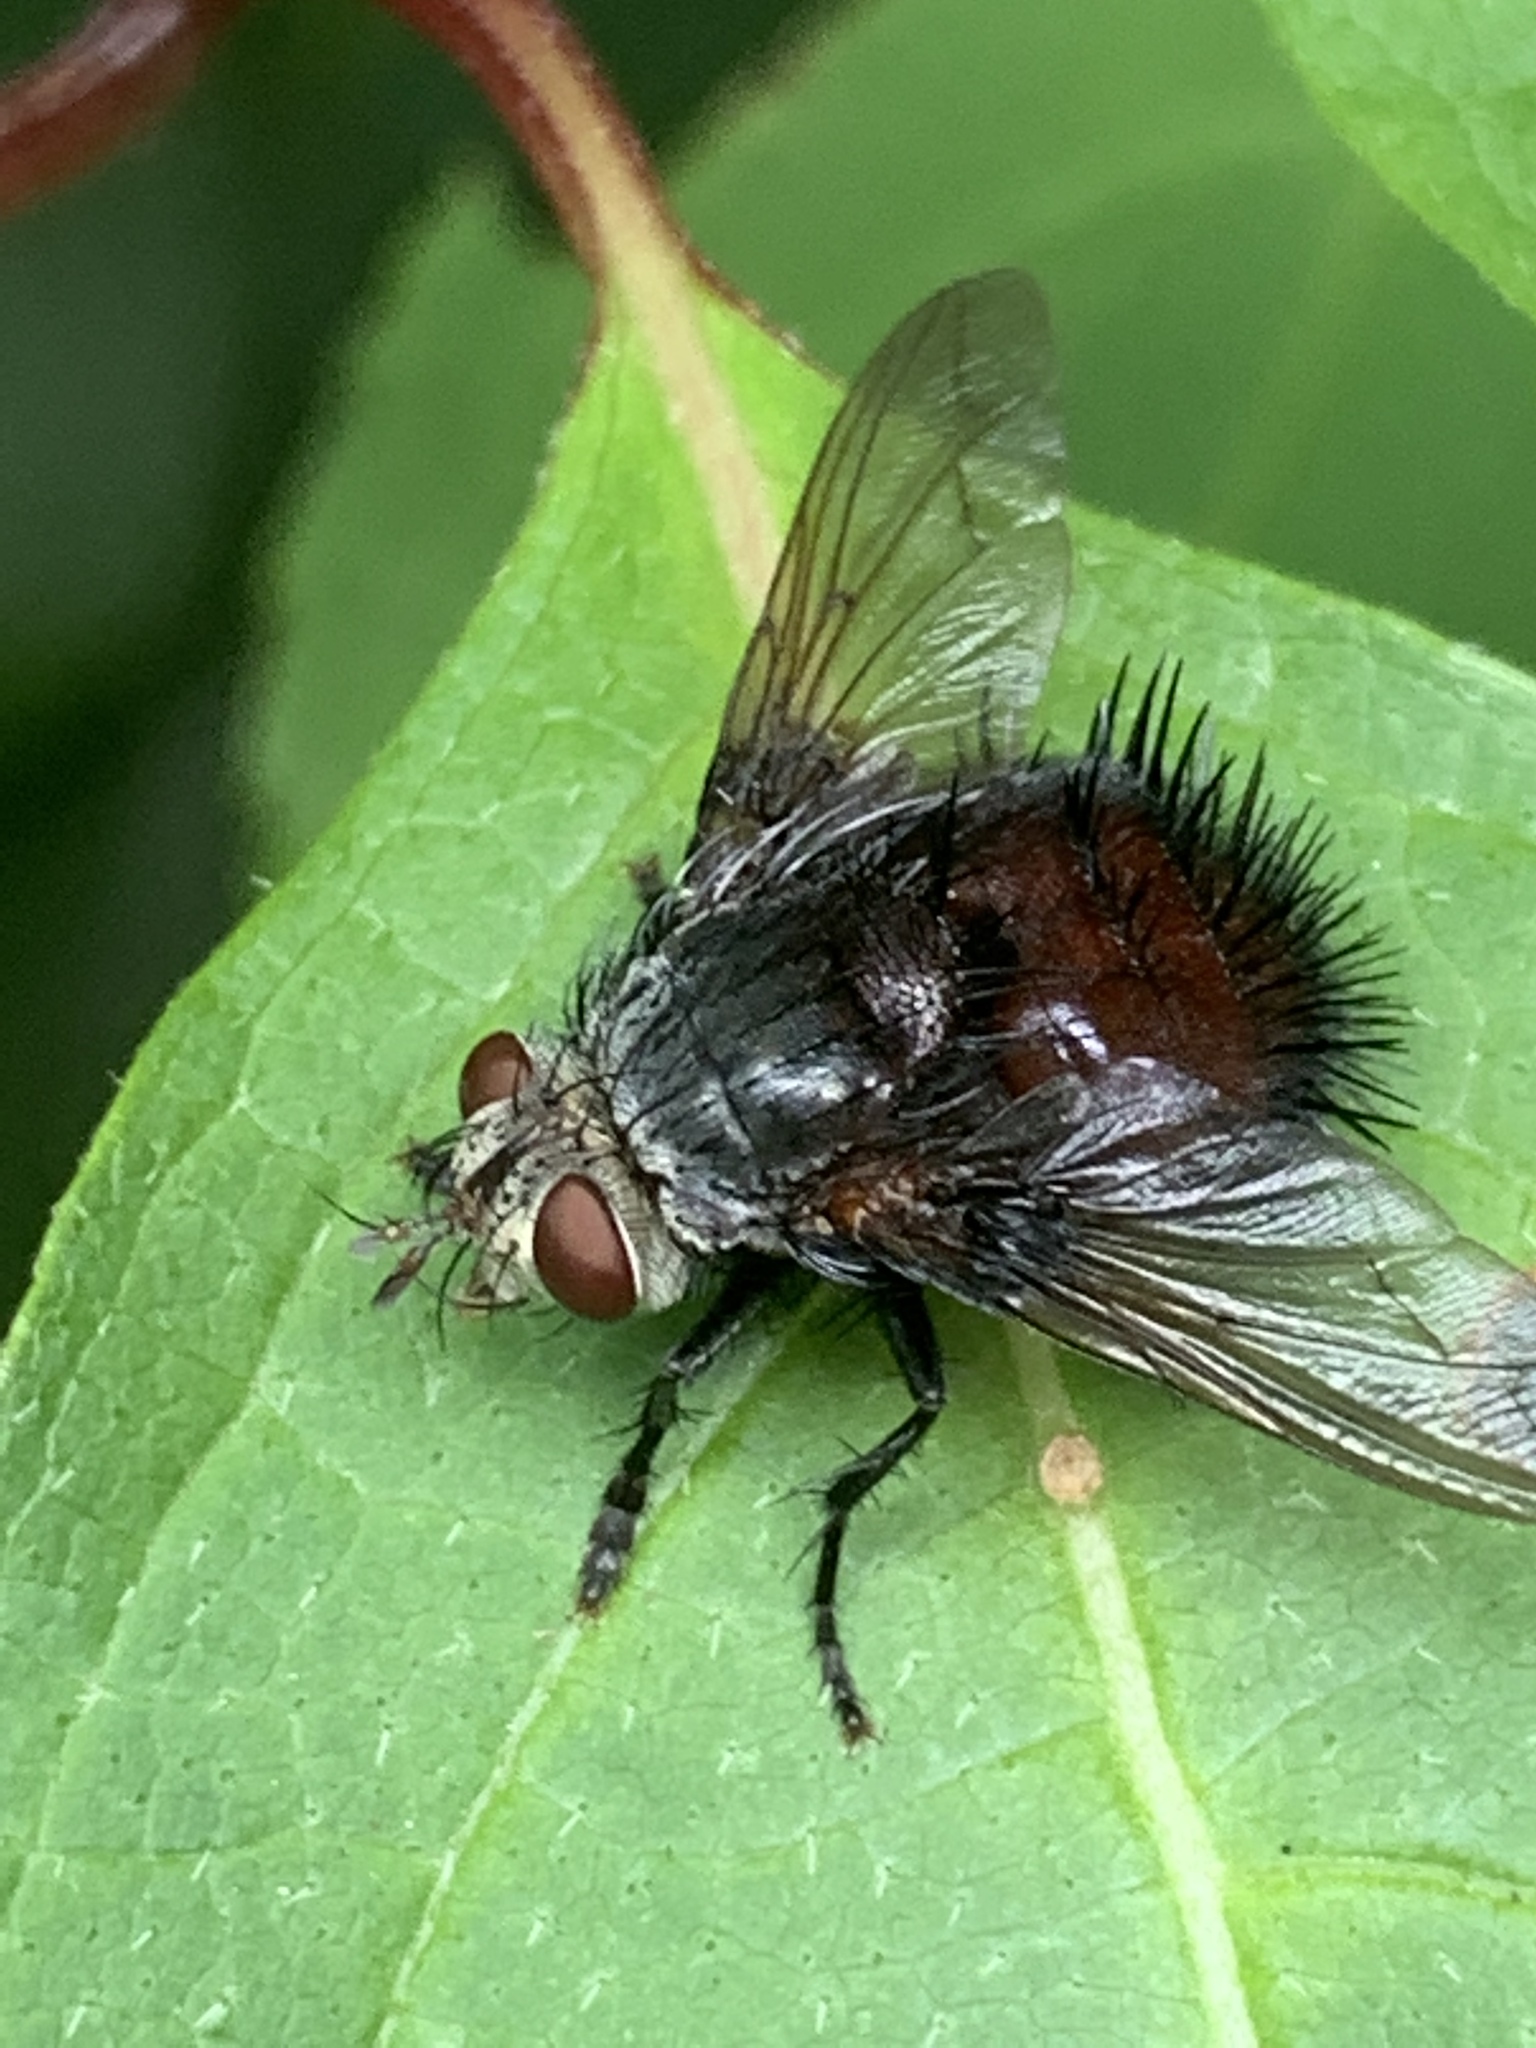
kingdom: Animalia
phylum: Arthropoda
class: Insecta
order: Diptera
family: Tachinidae
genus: Juriniopsis
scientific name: Juriniopsis adusta
